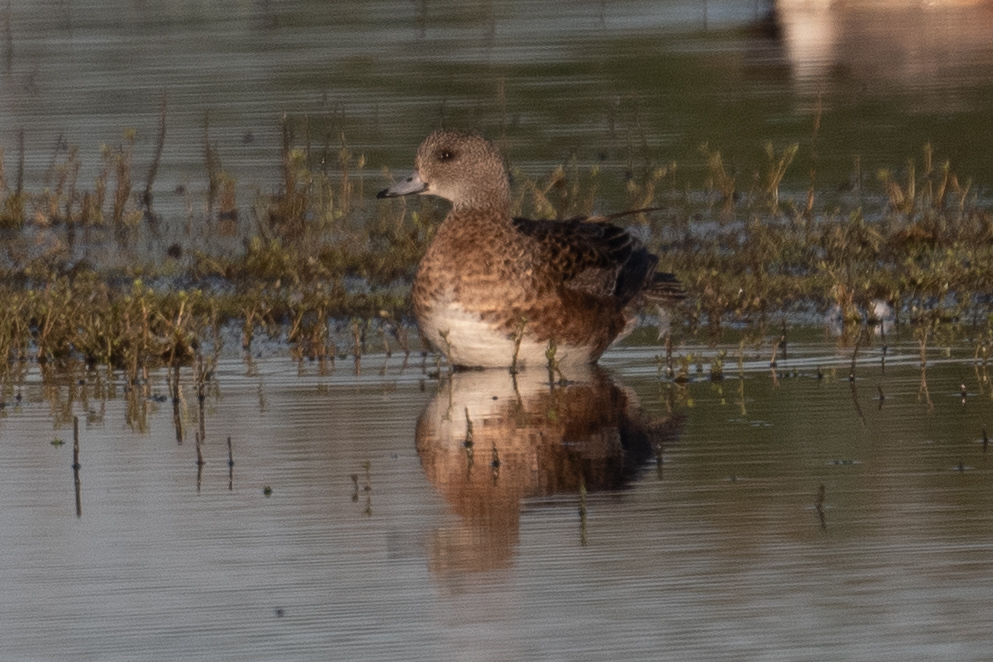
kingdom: Animalia
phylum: Chordata
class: Aves
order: Anseriformes
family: Anatidae
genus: Mareca
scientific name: Mareca americana
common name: American wigeon
